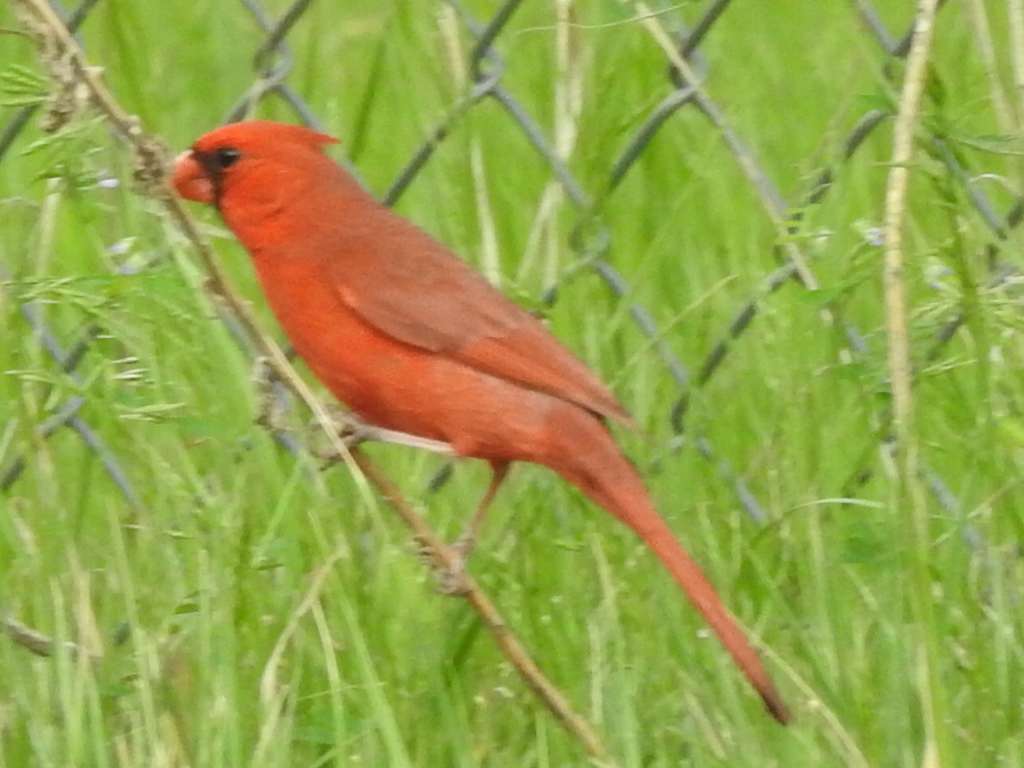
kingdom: Animalia
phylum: Chordata
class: Aves
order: Passeriformes
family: Cardinalidae
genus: Cardinalis
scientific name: Cardinalis cardinalis
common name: Northern cardinal
